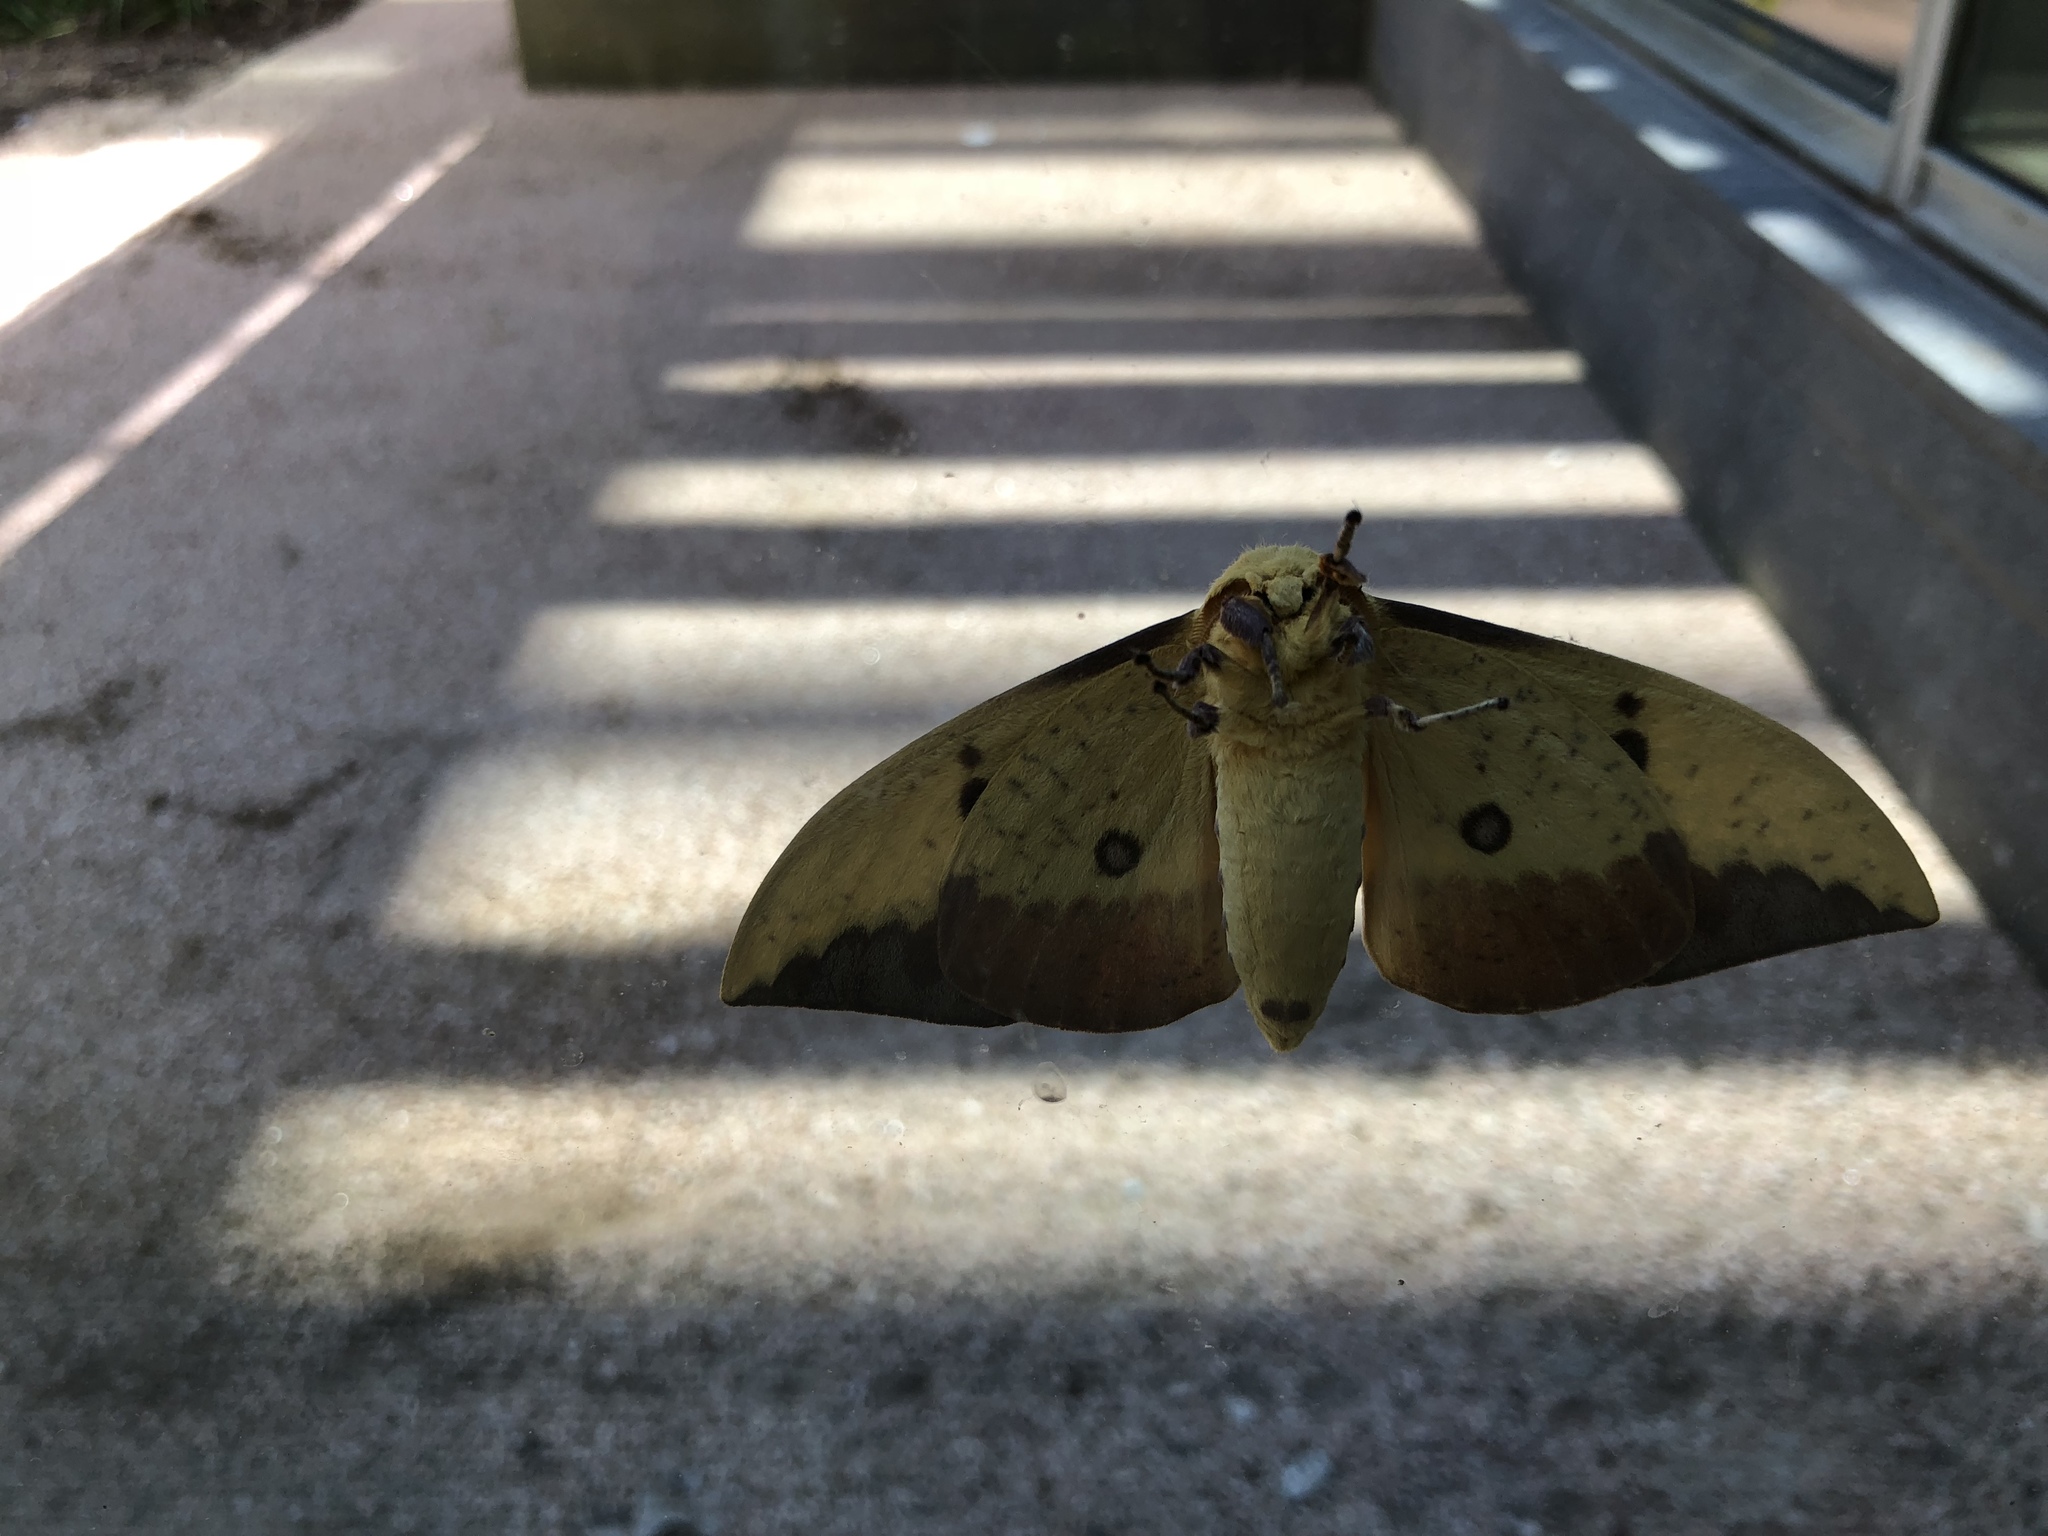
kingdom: Animalia
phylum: Arthropoda
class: Insecta
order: Lepidoptera
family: Saturniidae
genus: Eacles
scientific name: Eacles imperialis
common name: Imperial moth
